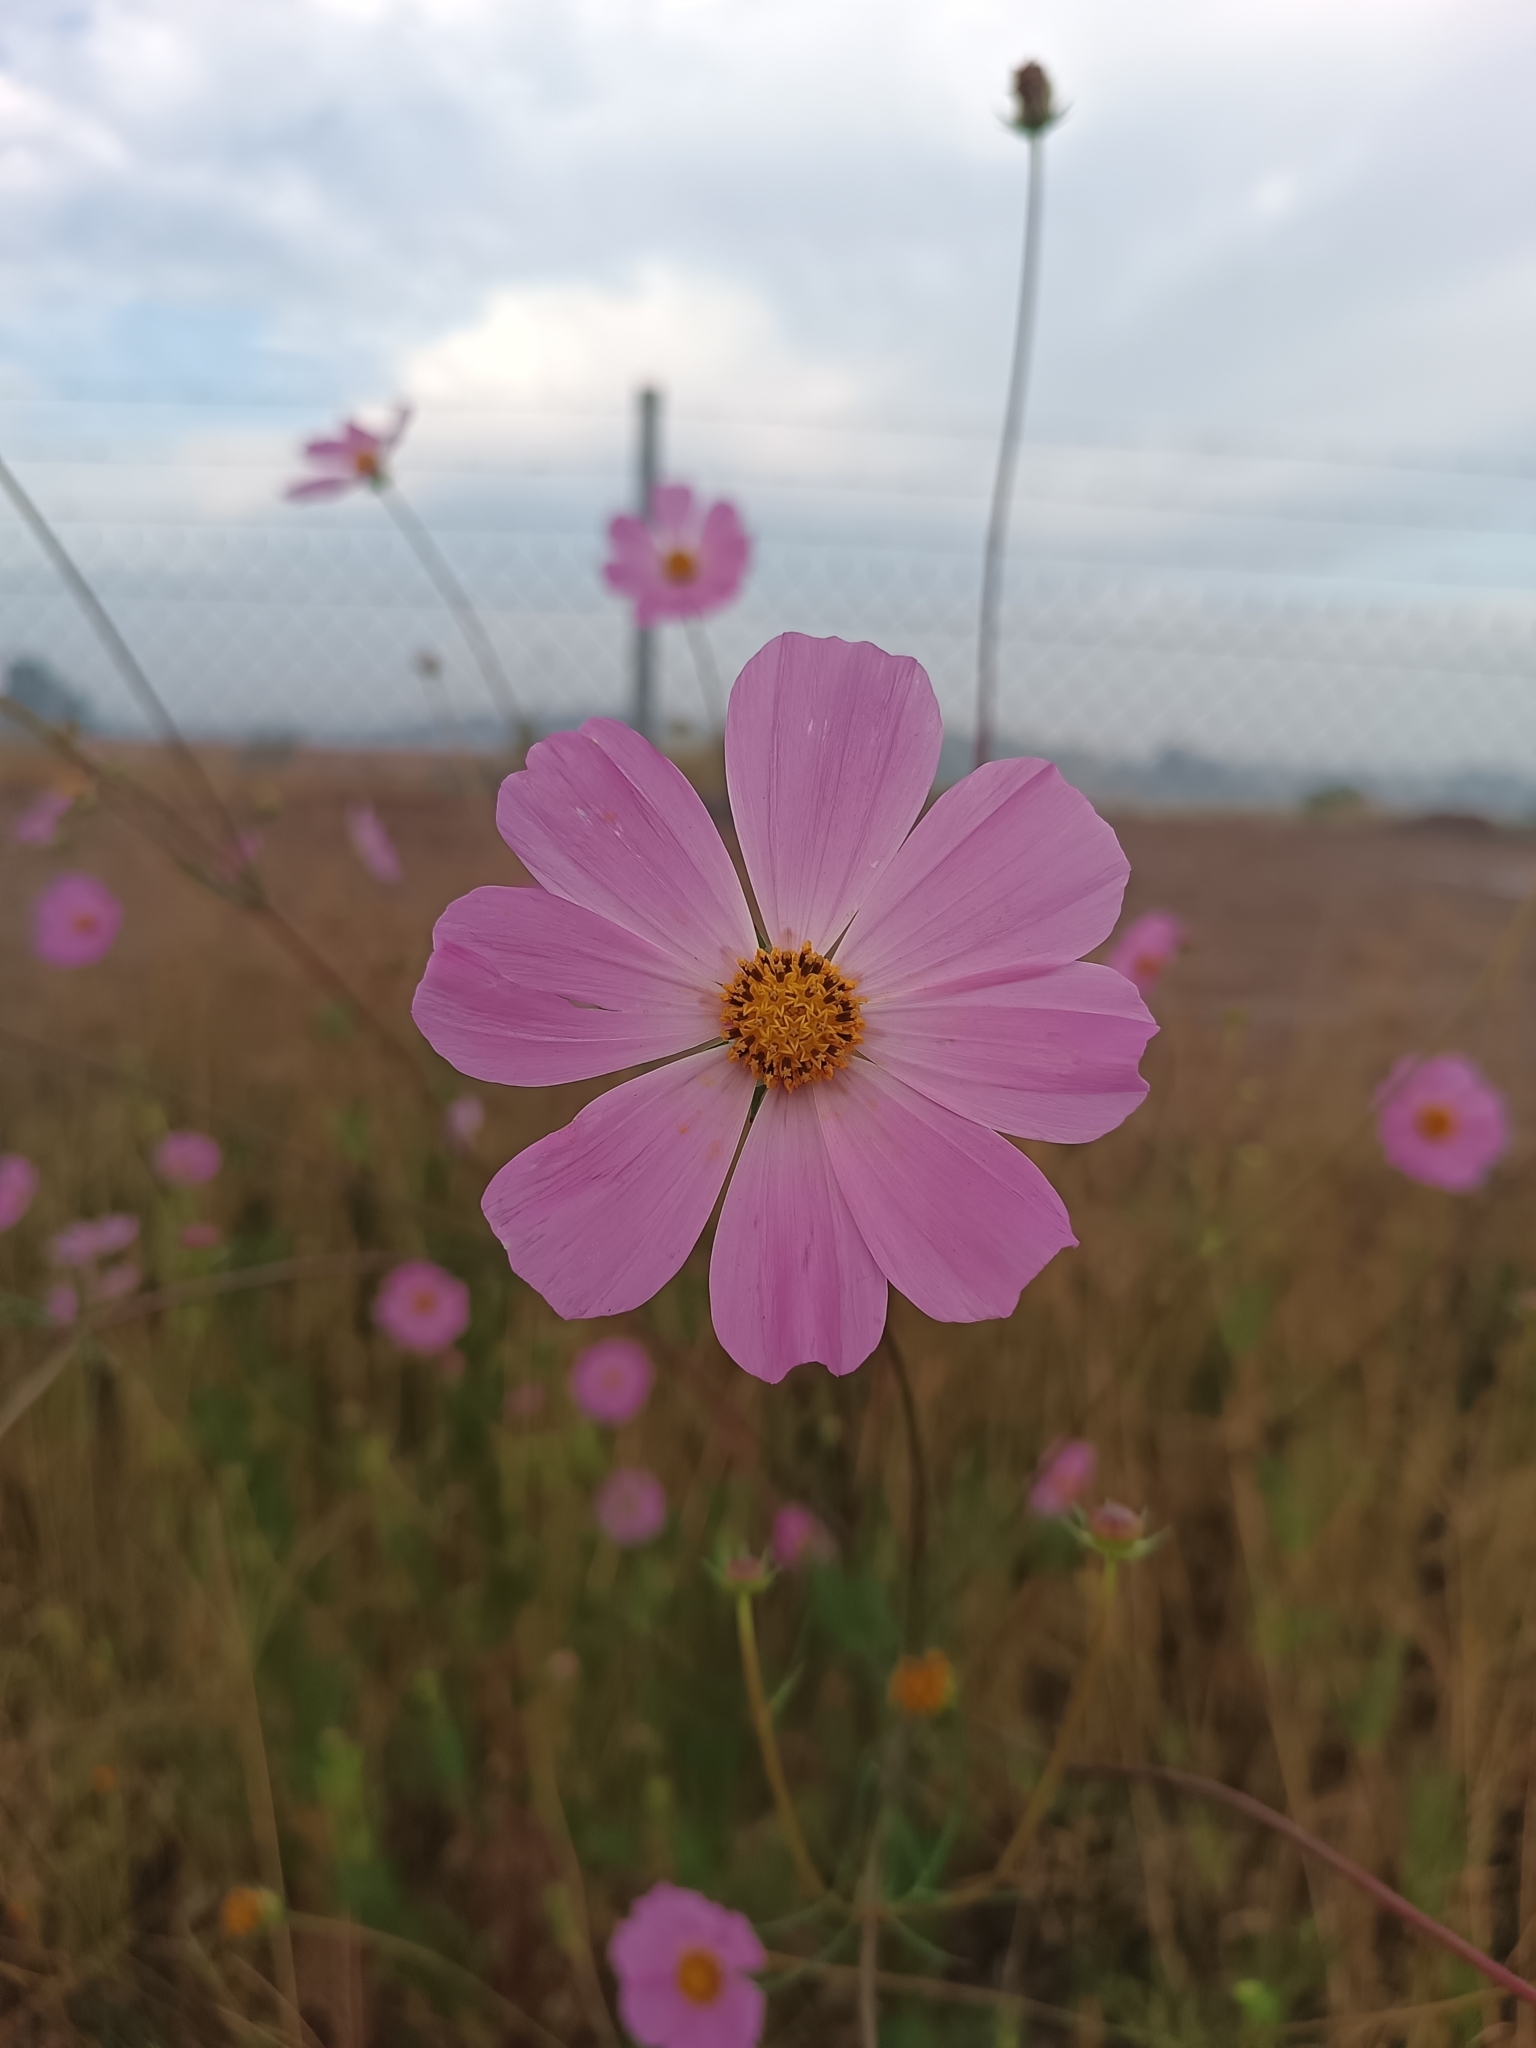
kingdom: Plantae
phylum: Tracheophyta
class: Magnoliopsida
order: Asterales
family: Asteraceae
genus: Cosmos
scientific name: Cosmos bipinnatus
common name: Garden cosmos
